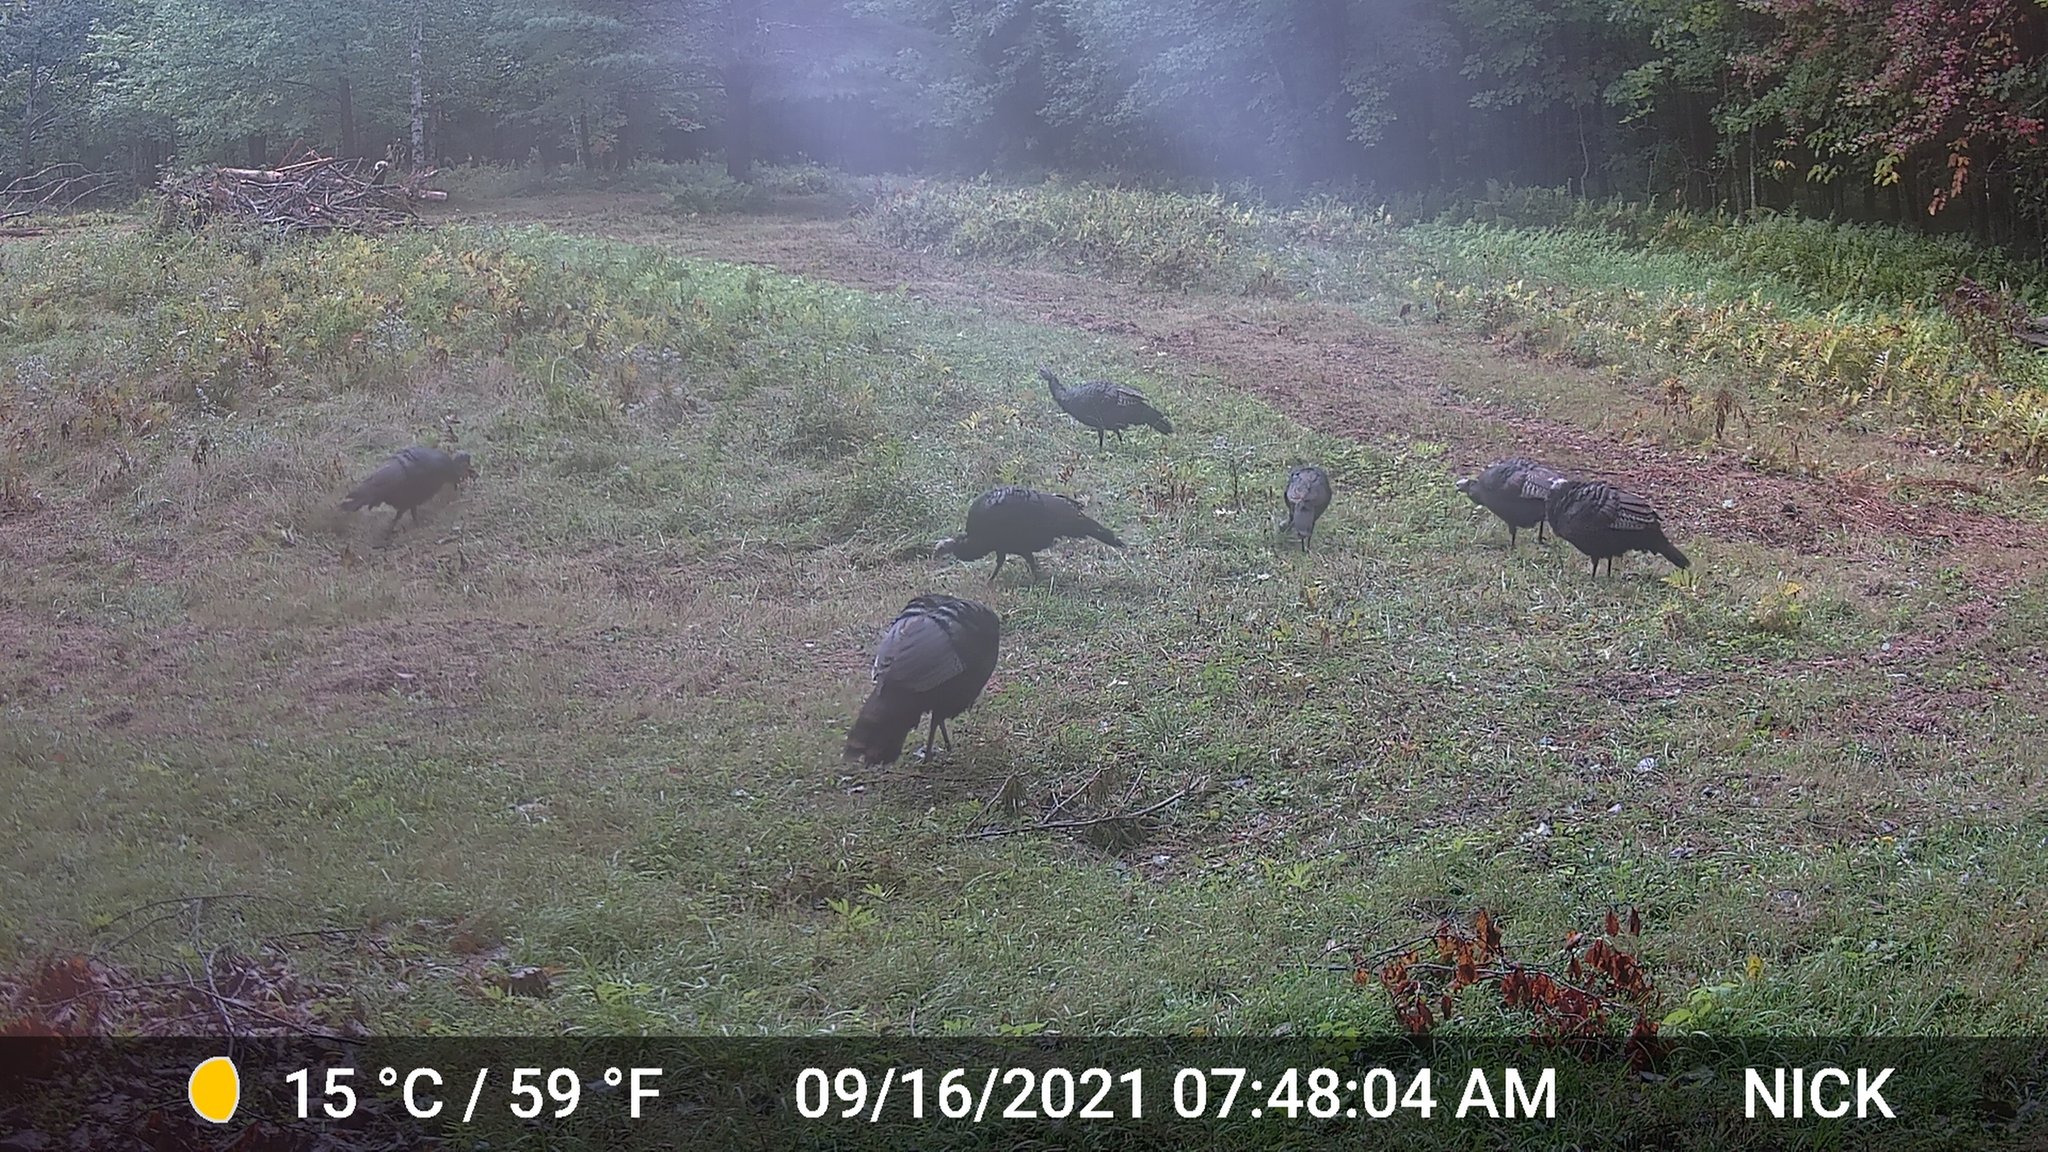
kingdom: Animalia
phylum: Chordata
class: Aves
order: Galliformes
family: Phasianidae
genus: Meleagris
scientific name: Meleagris gallopavo
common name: Wild turkey
